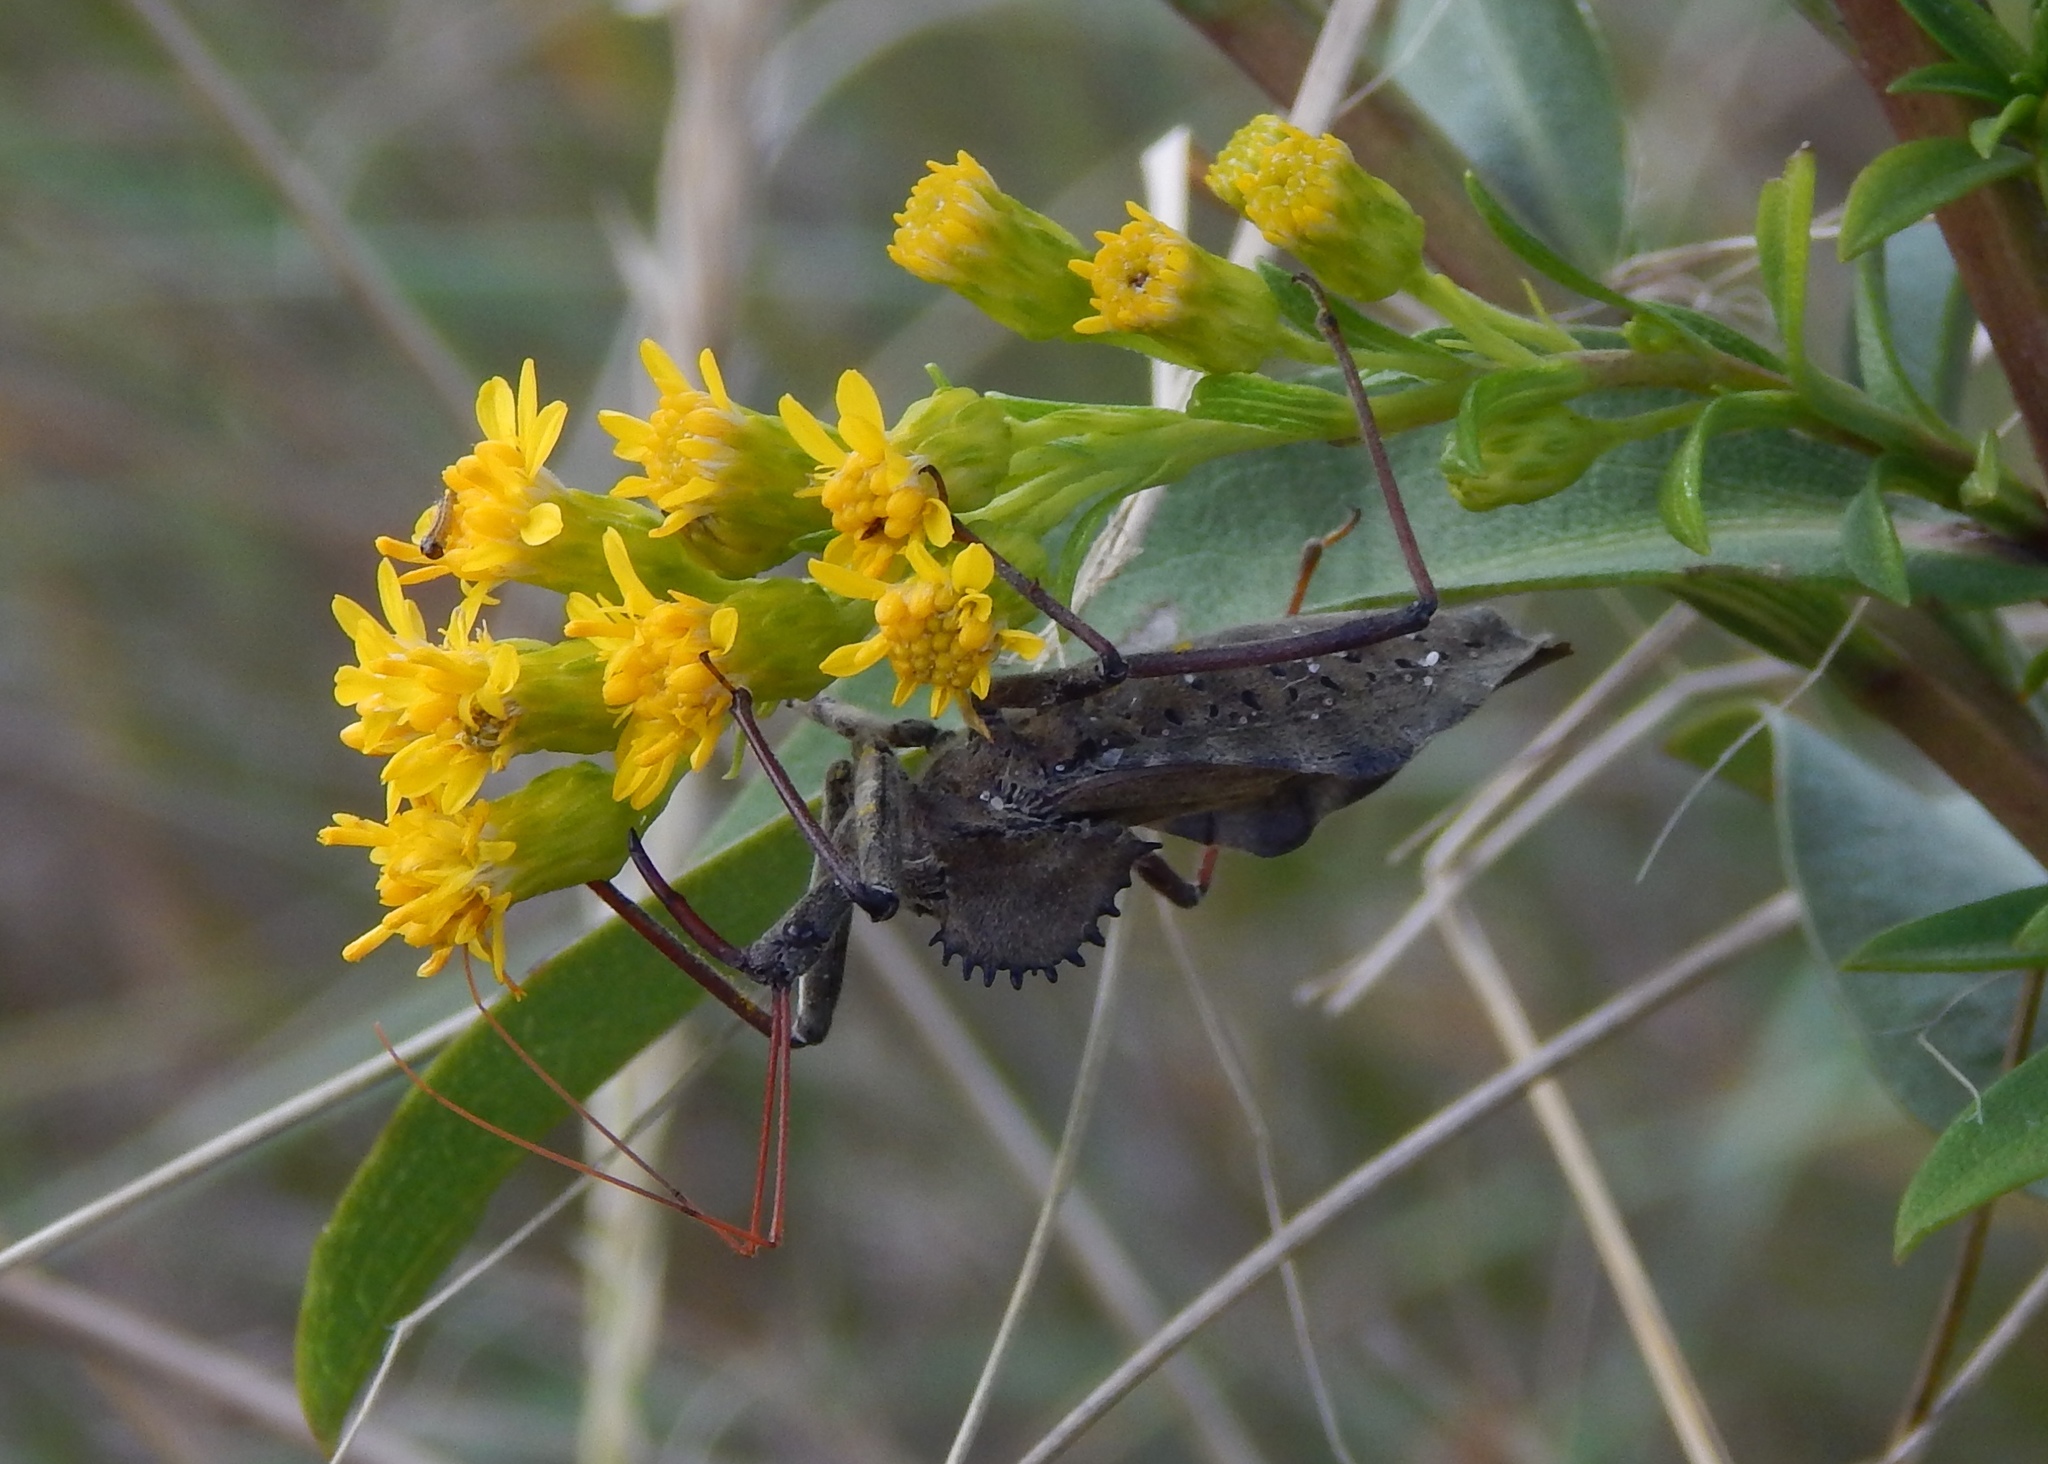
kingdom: Animalia
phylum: Arthropoda
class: Insecta
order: Hemiptera
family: Reduviidae
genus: Arilus
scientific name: Arilus cristatus
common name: North american wheel bug
